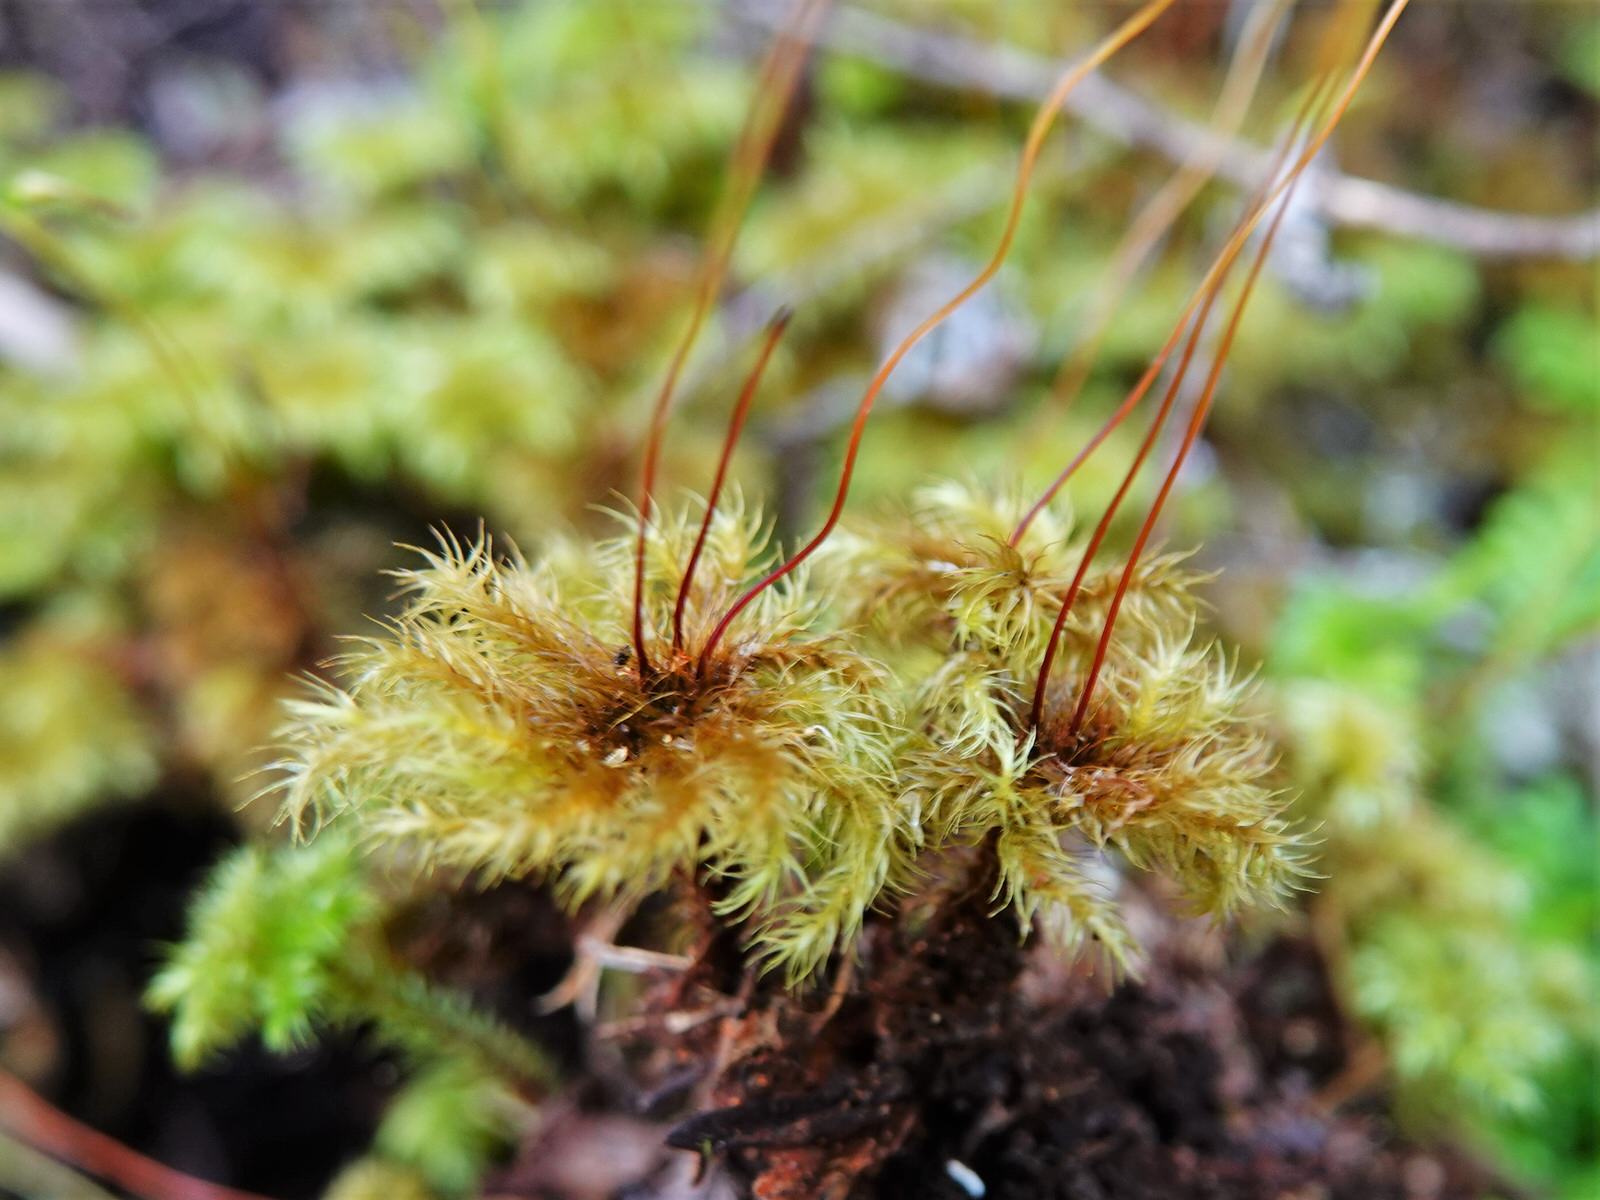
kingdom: Plantae
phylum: Bryophyta
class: Bryopsida
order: Hypnodendrales
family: Spiridentaceae
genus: Mniodendron
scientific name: Mniodendron colensoi
